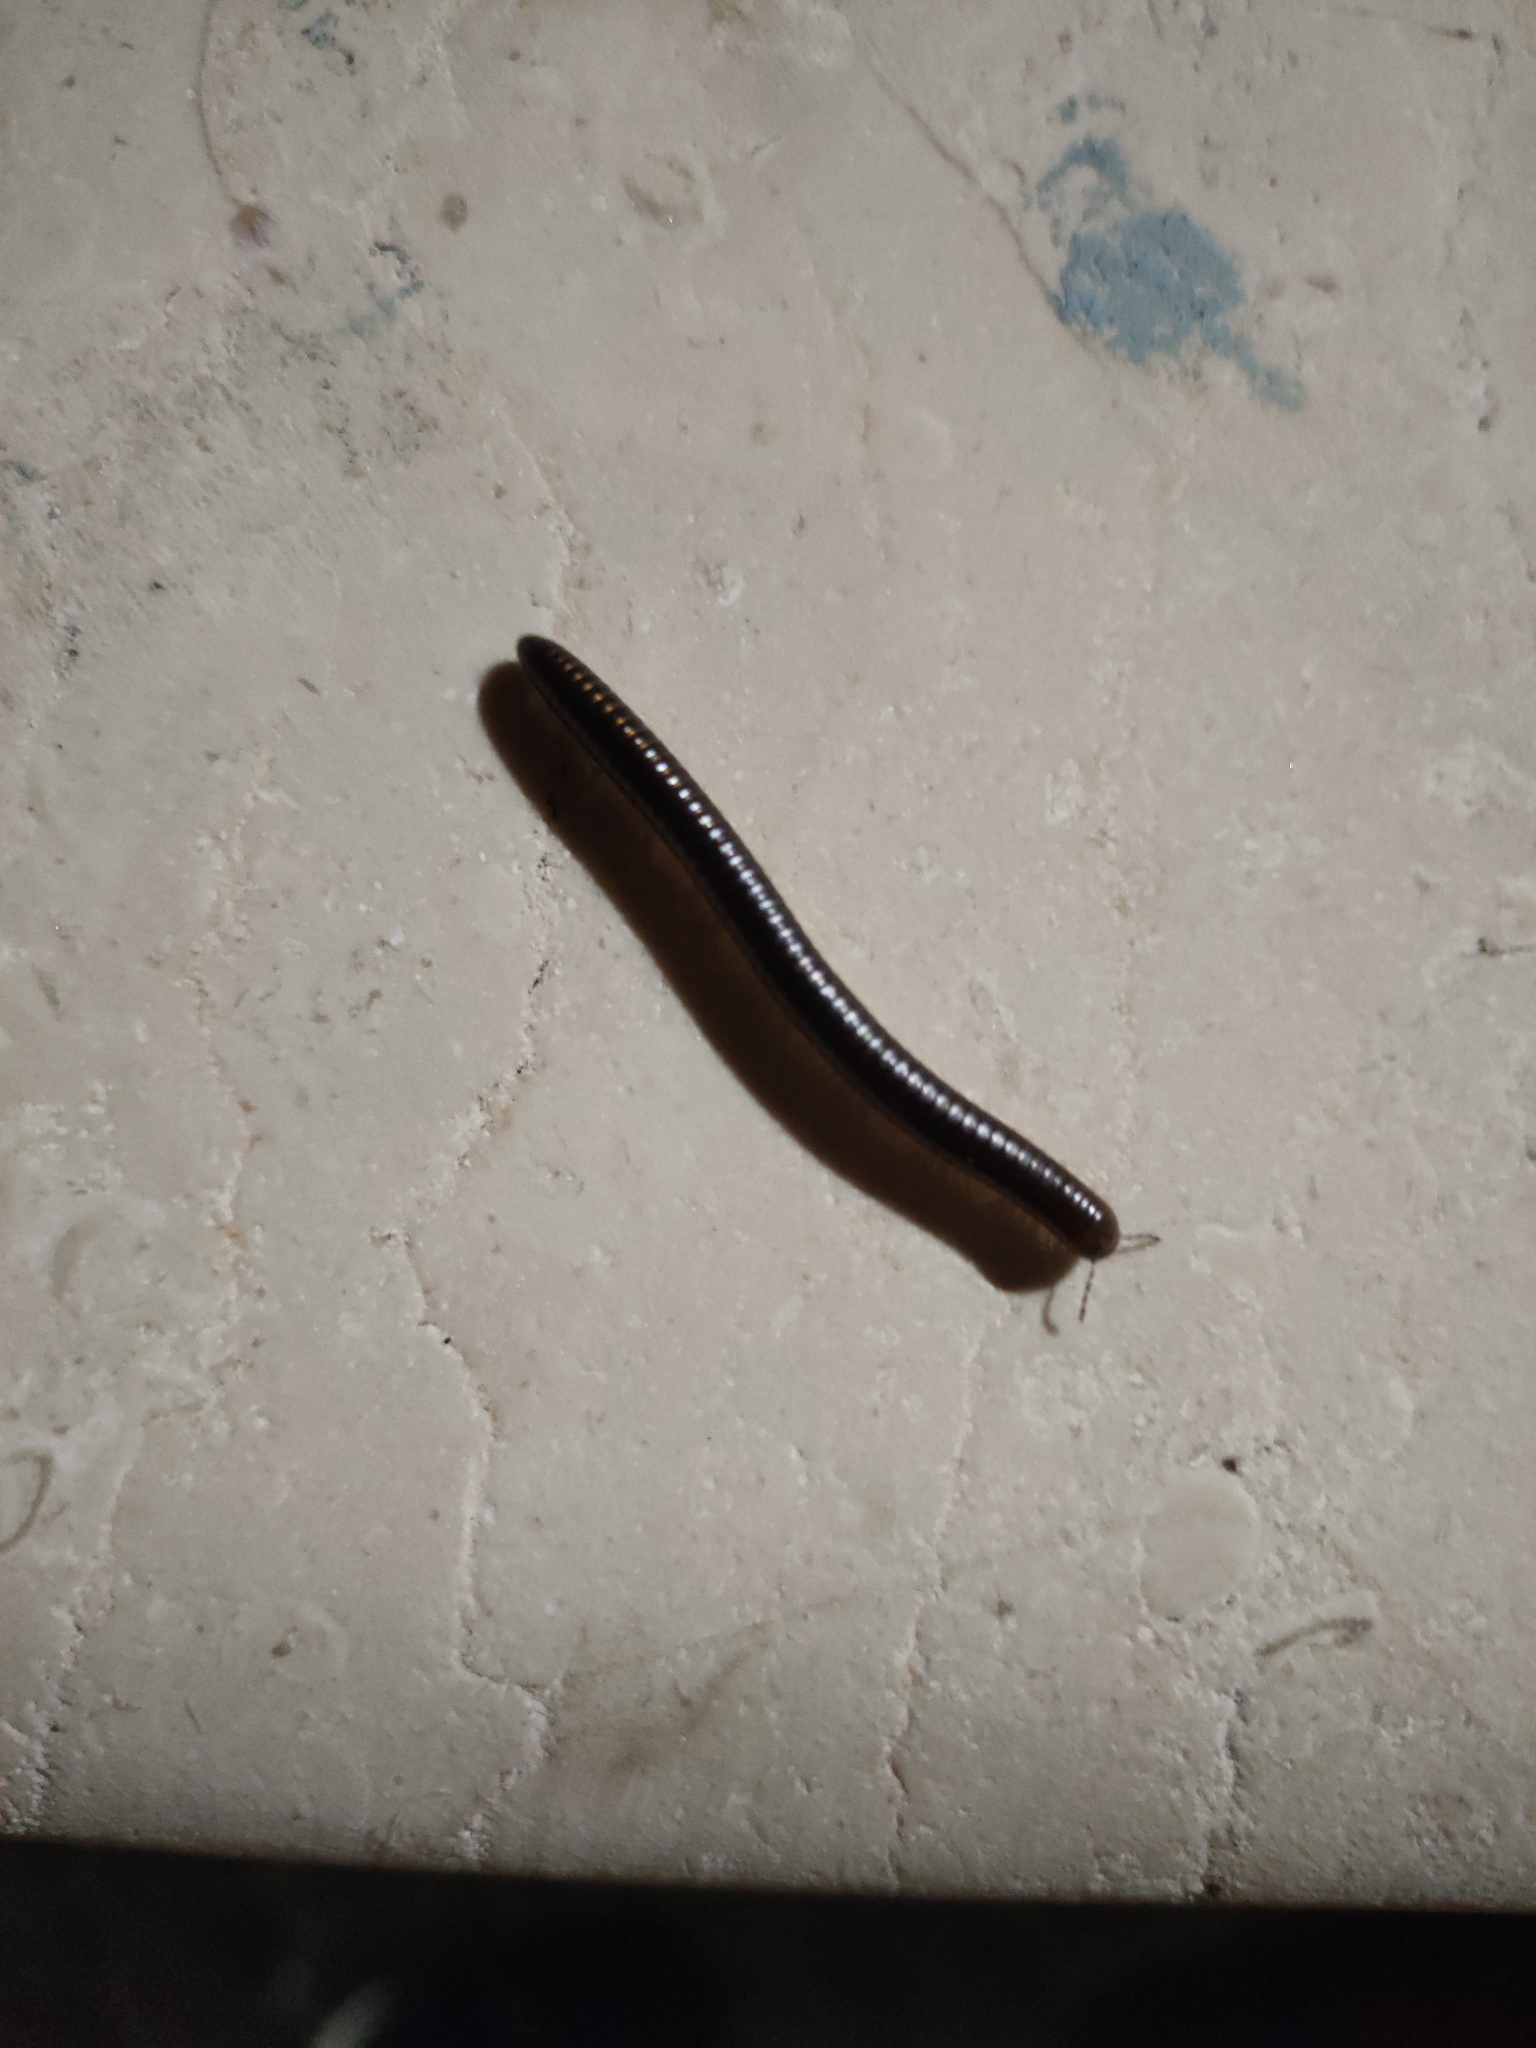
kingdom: Animalia
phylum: Arthropoda
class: Diplopoda
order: Julida
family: Julidae
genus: Pachyiulus
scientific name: Pachyiulus flavipes
